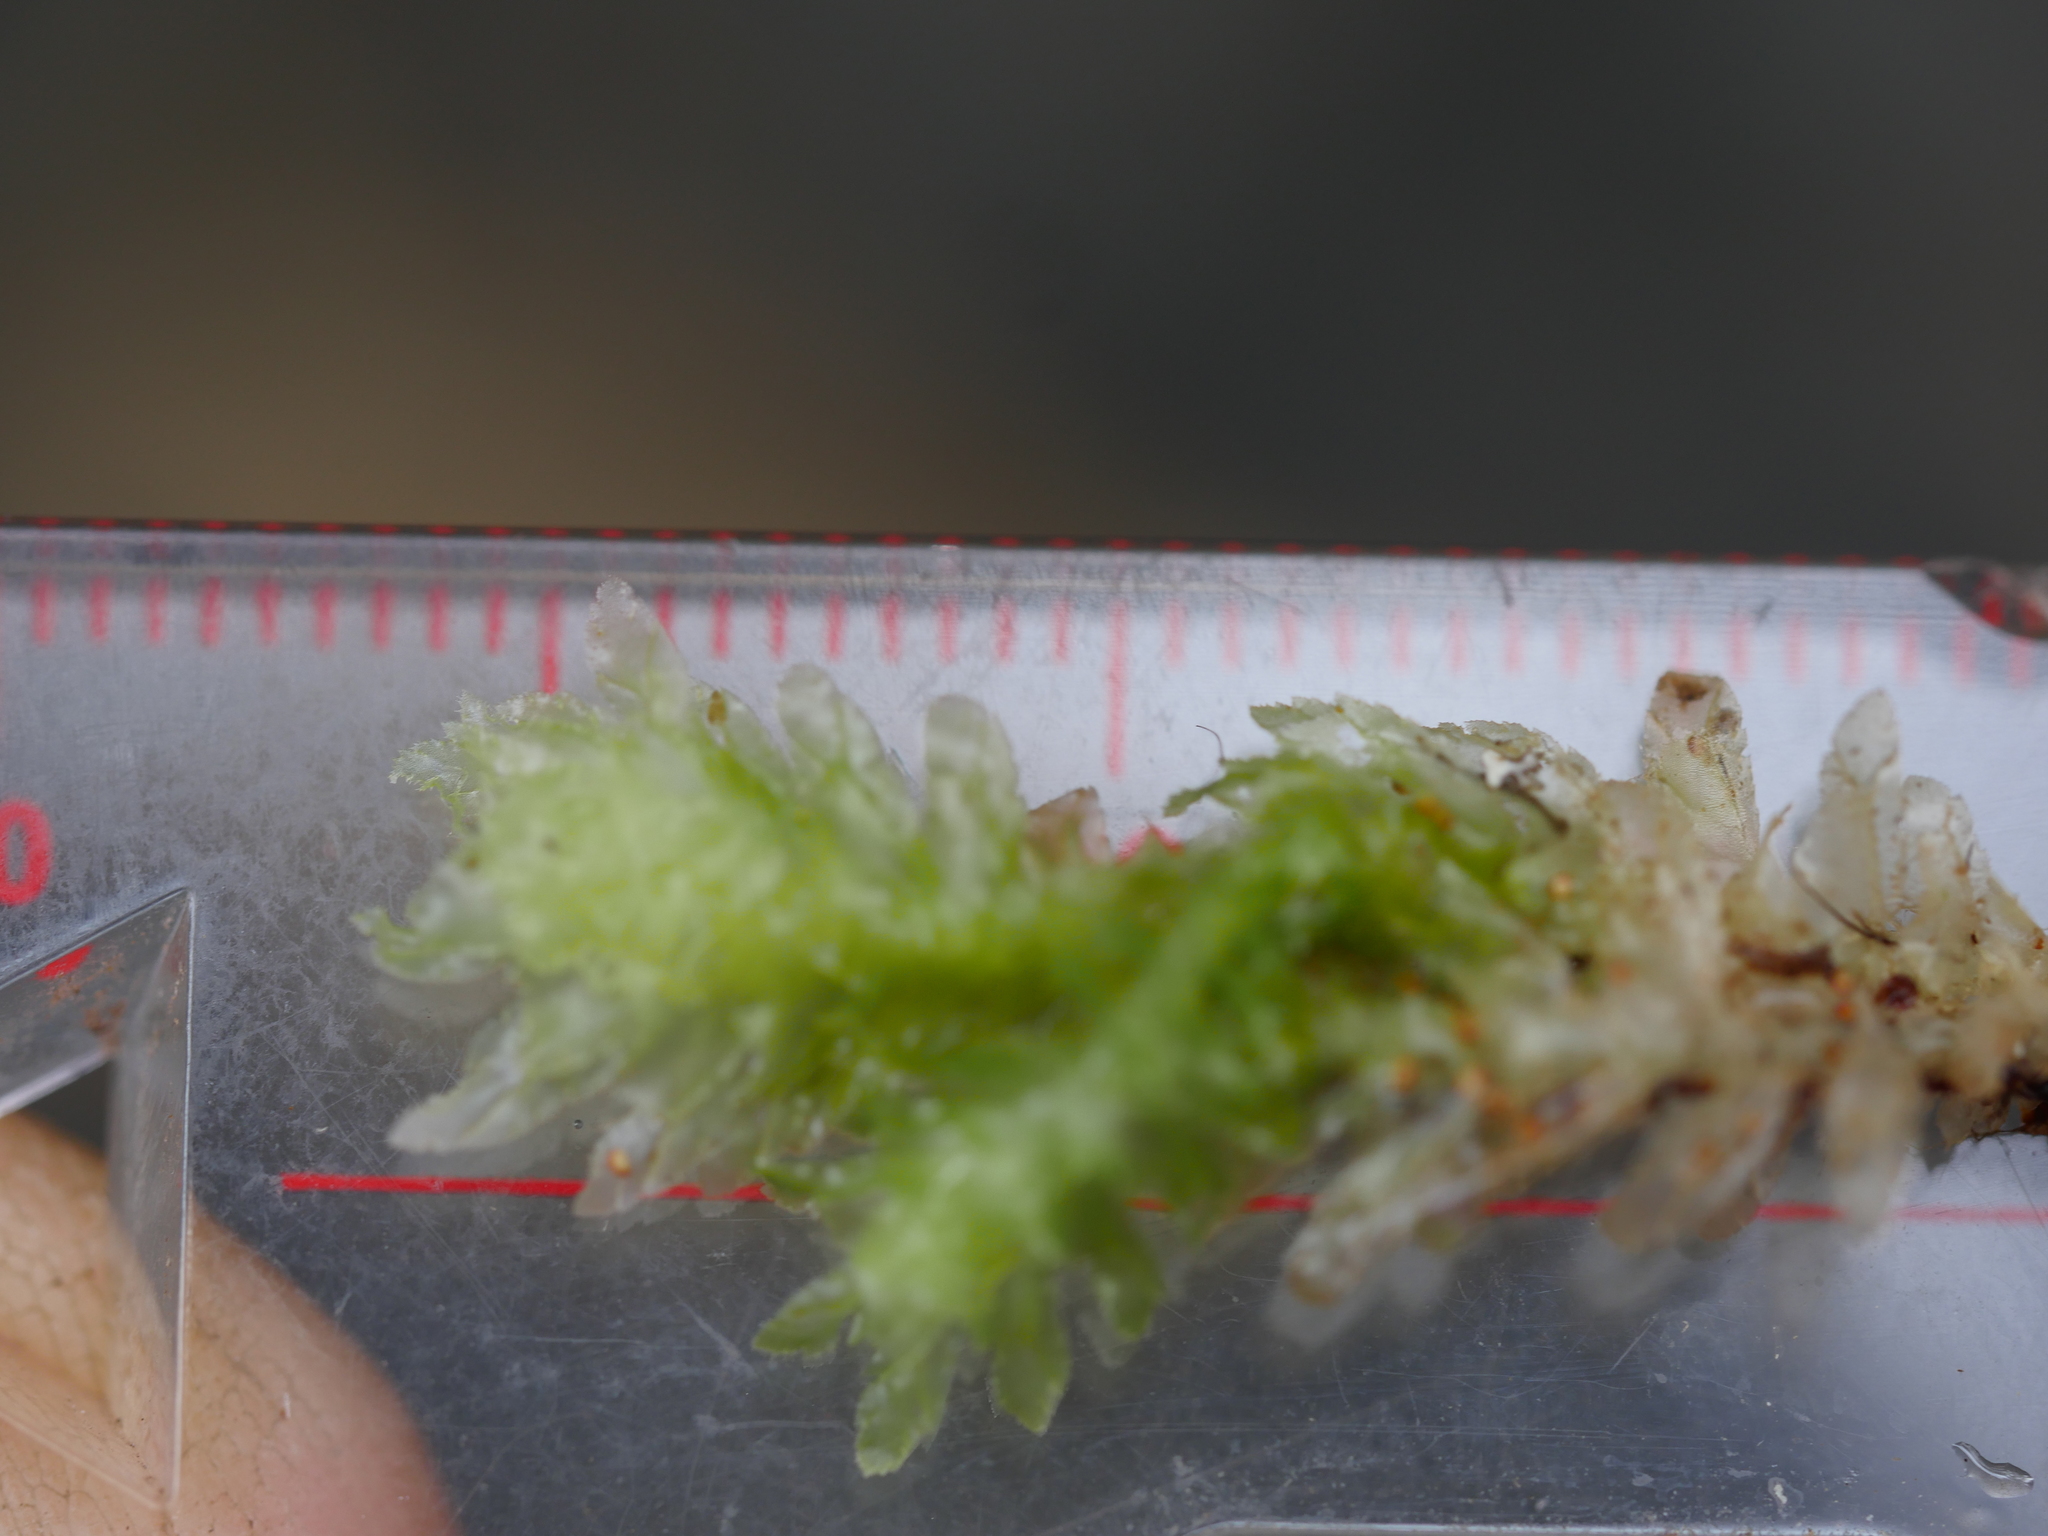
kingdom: Plantae
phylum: Marchantiophyta
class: Jungermanniopsida
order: Jungermanniales
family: Schistochilaceae
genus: Schistochila
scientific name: Schistochila repleta
